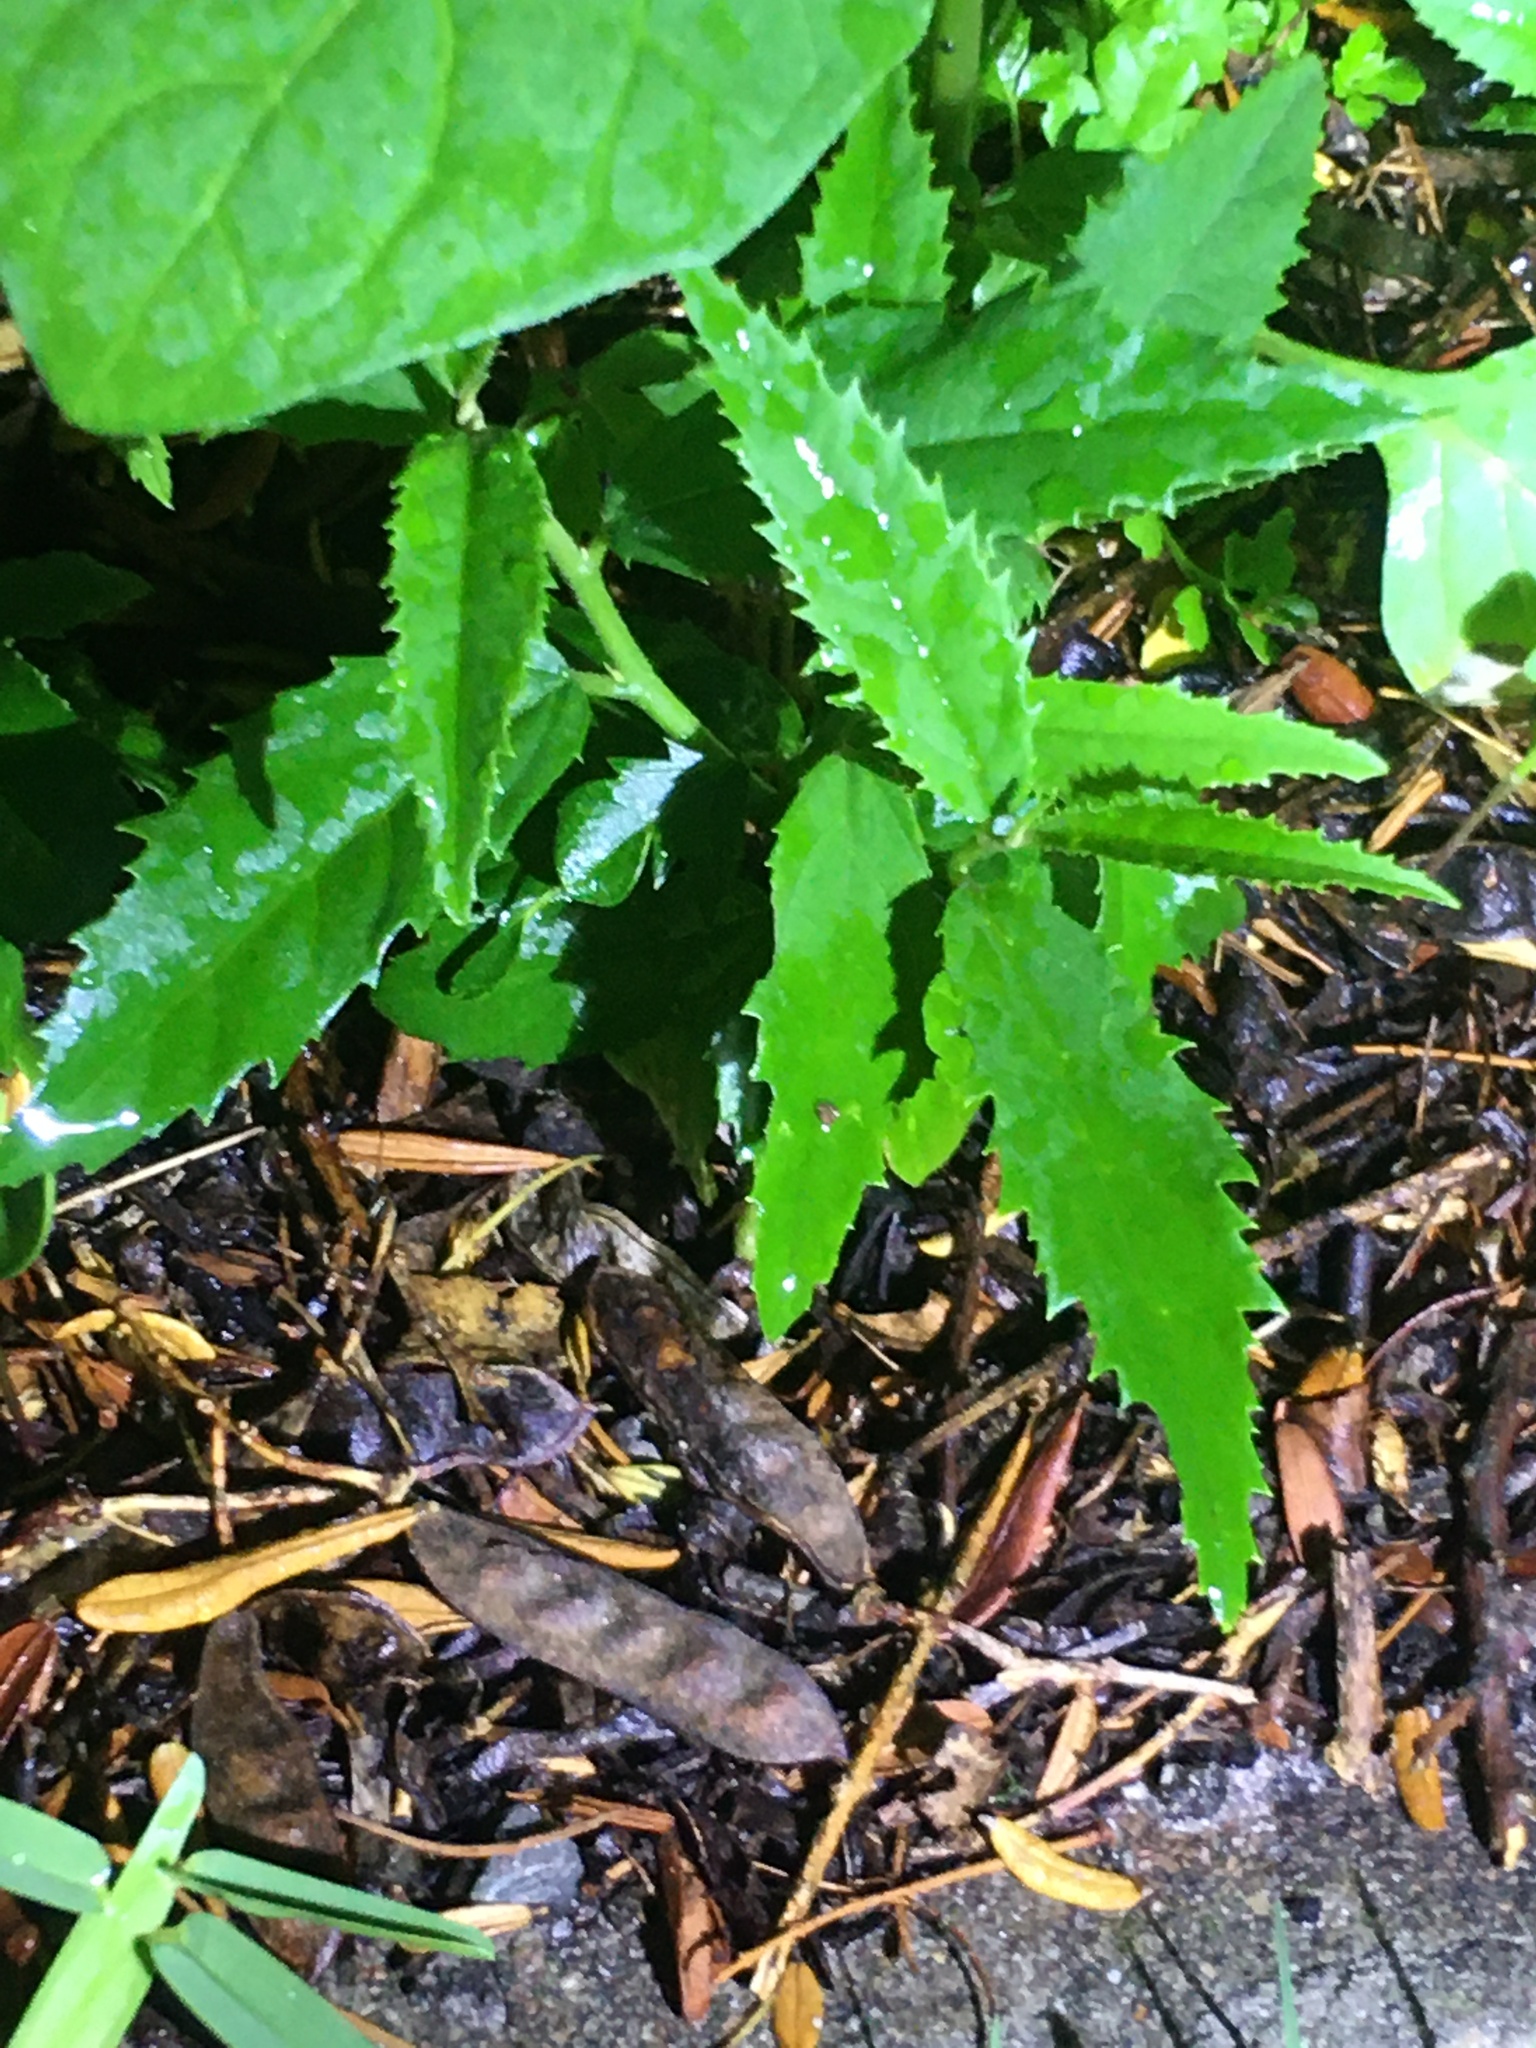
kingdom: Plantae
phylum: Tracheophyta
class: Magnoliopsida
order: Malpighiales
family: Achariaceae
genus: Kiggelaria
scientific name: Kiggelaria africana
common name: Wild peach
